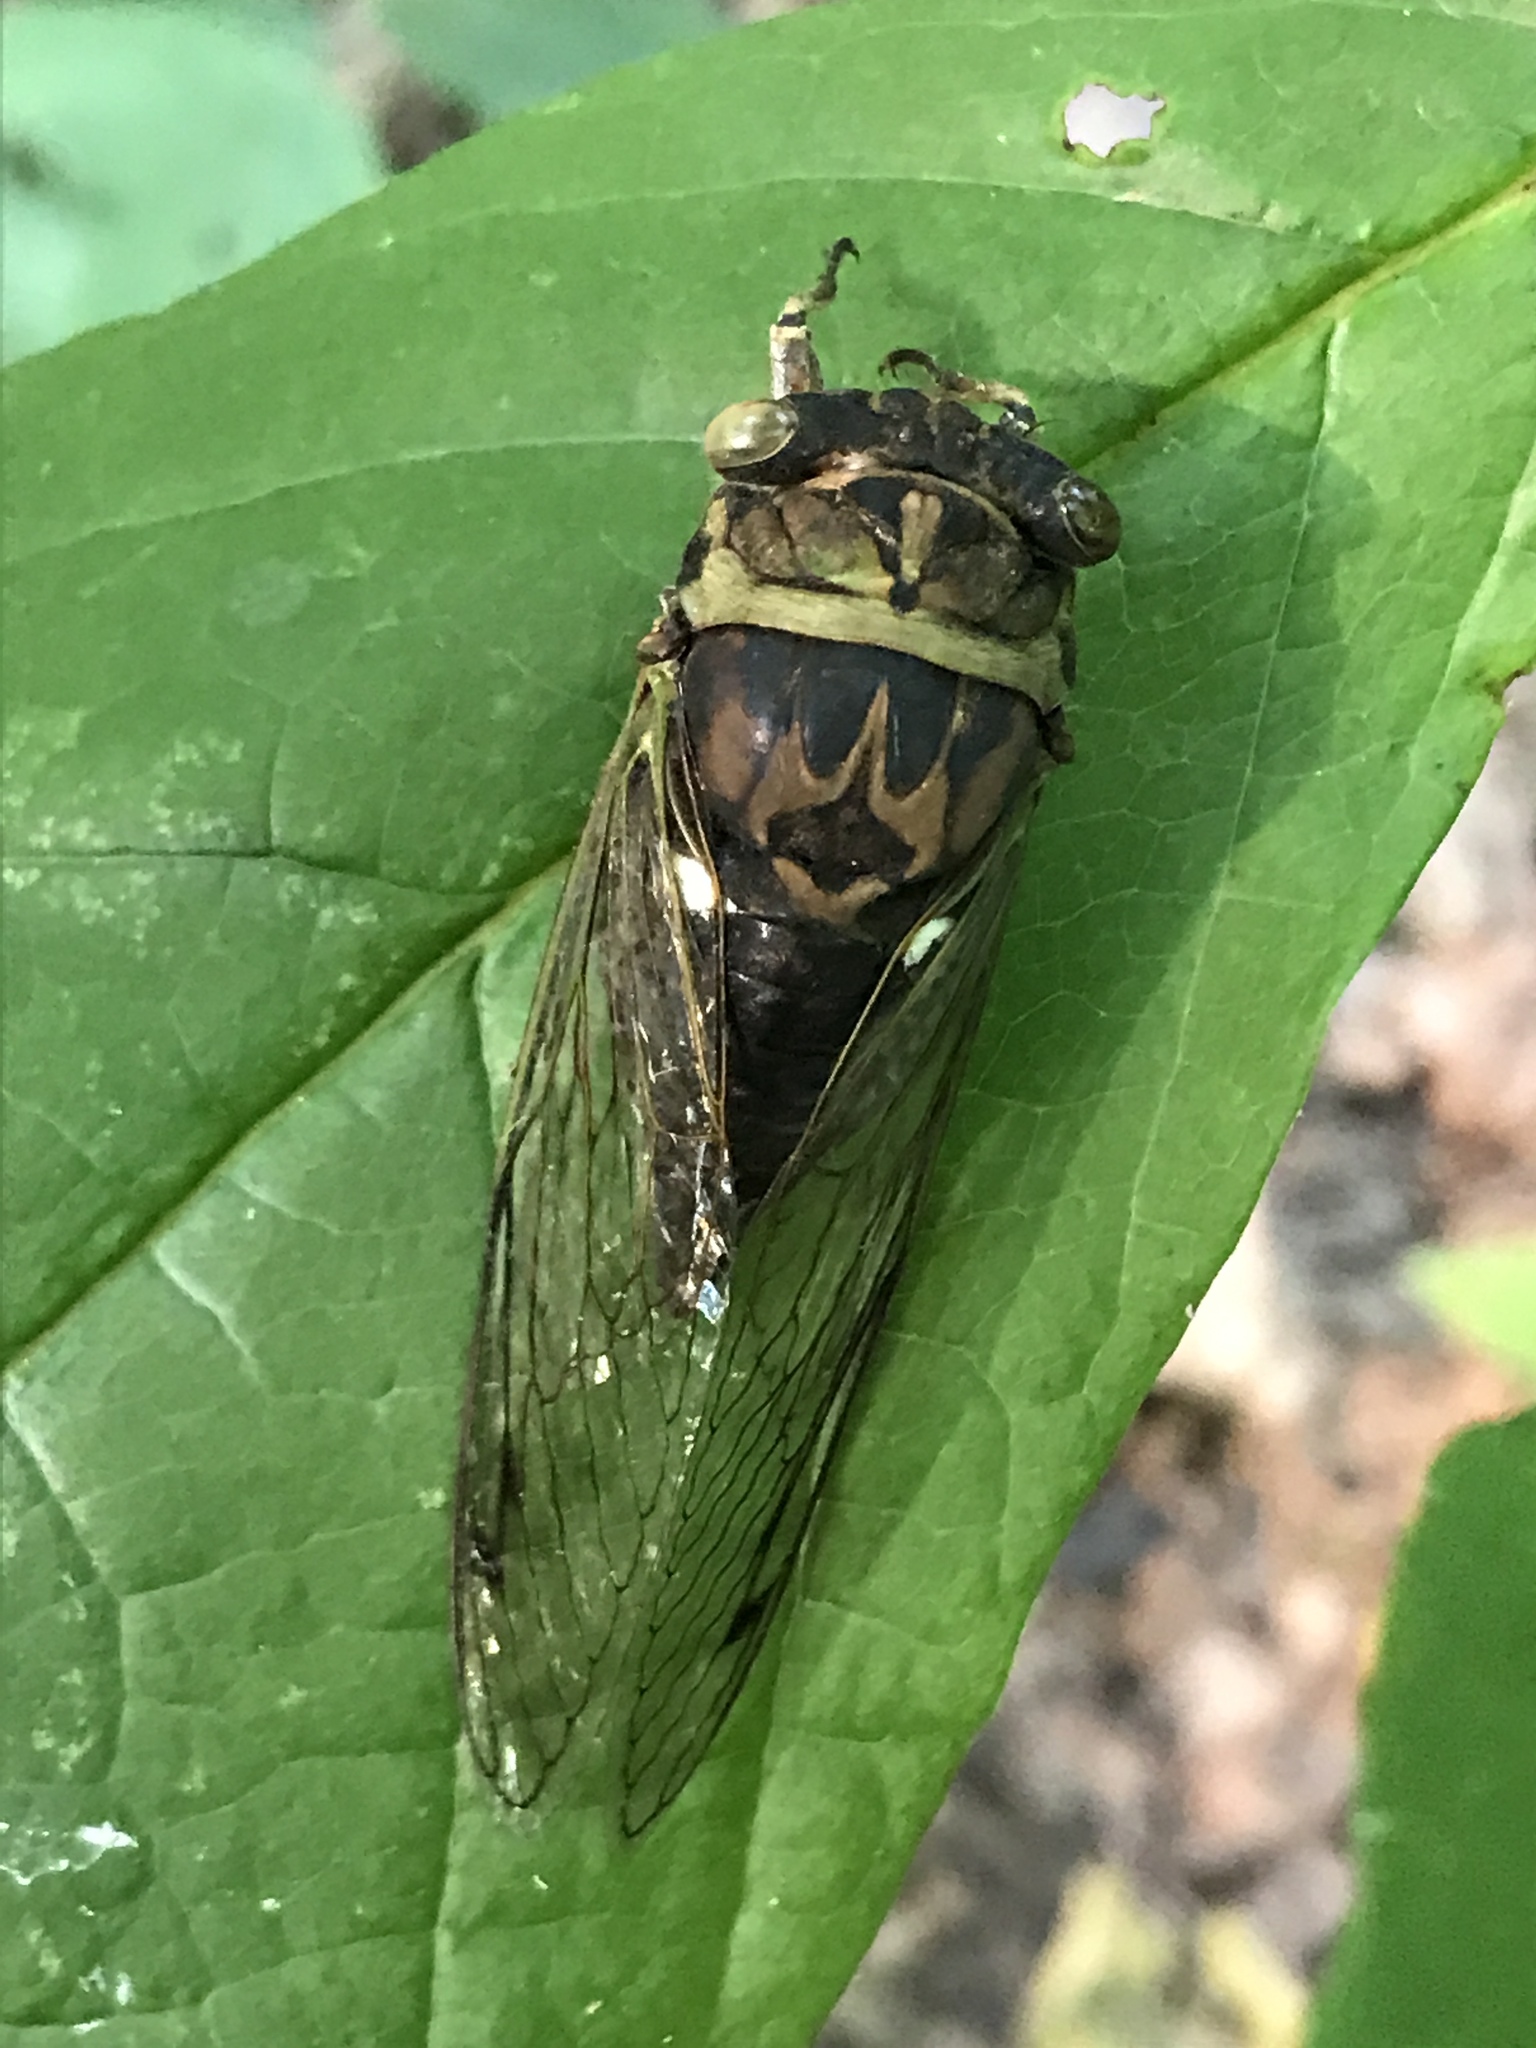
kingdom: Animalia
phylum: Arthropoda
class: Insecta
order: Hemiptera
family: Cicadidae
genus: Neotibicen
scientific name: Neotibicen pruinosus
